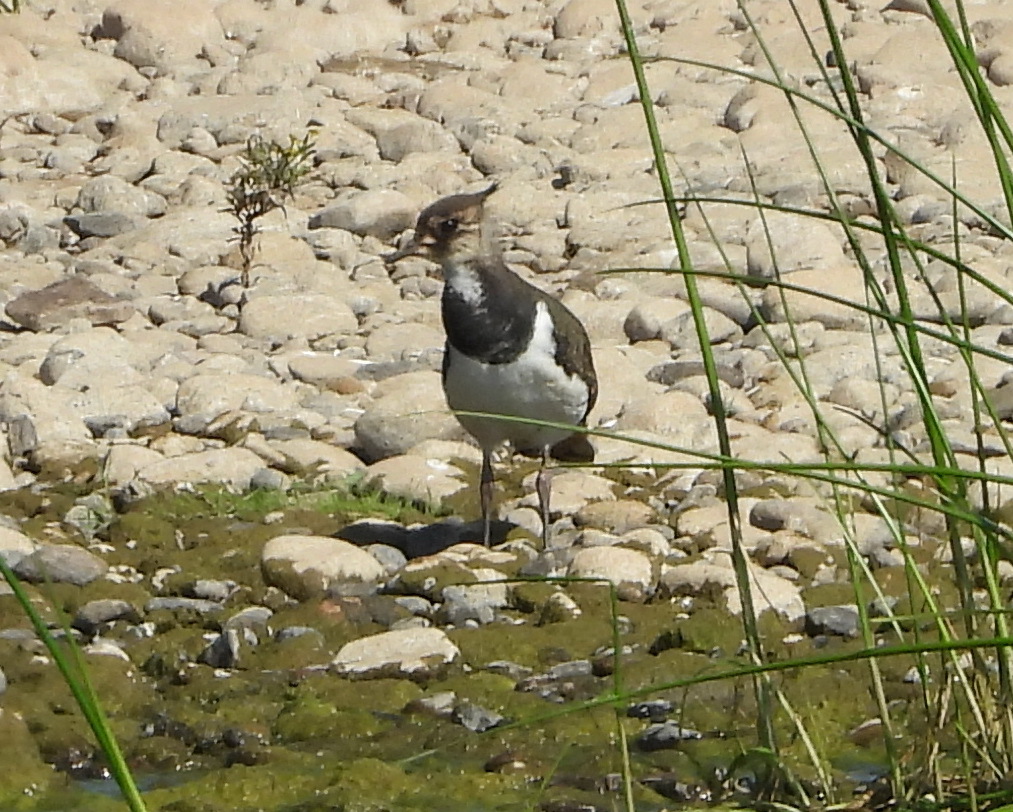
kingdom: Animalia
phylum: Chordata
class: Aves
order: Charadriiformes
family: Charadriidae
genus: Vanellus
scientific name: Vanellus vanellus
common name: Northern lapwing
